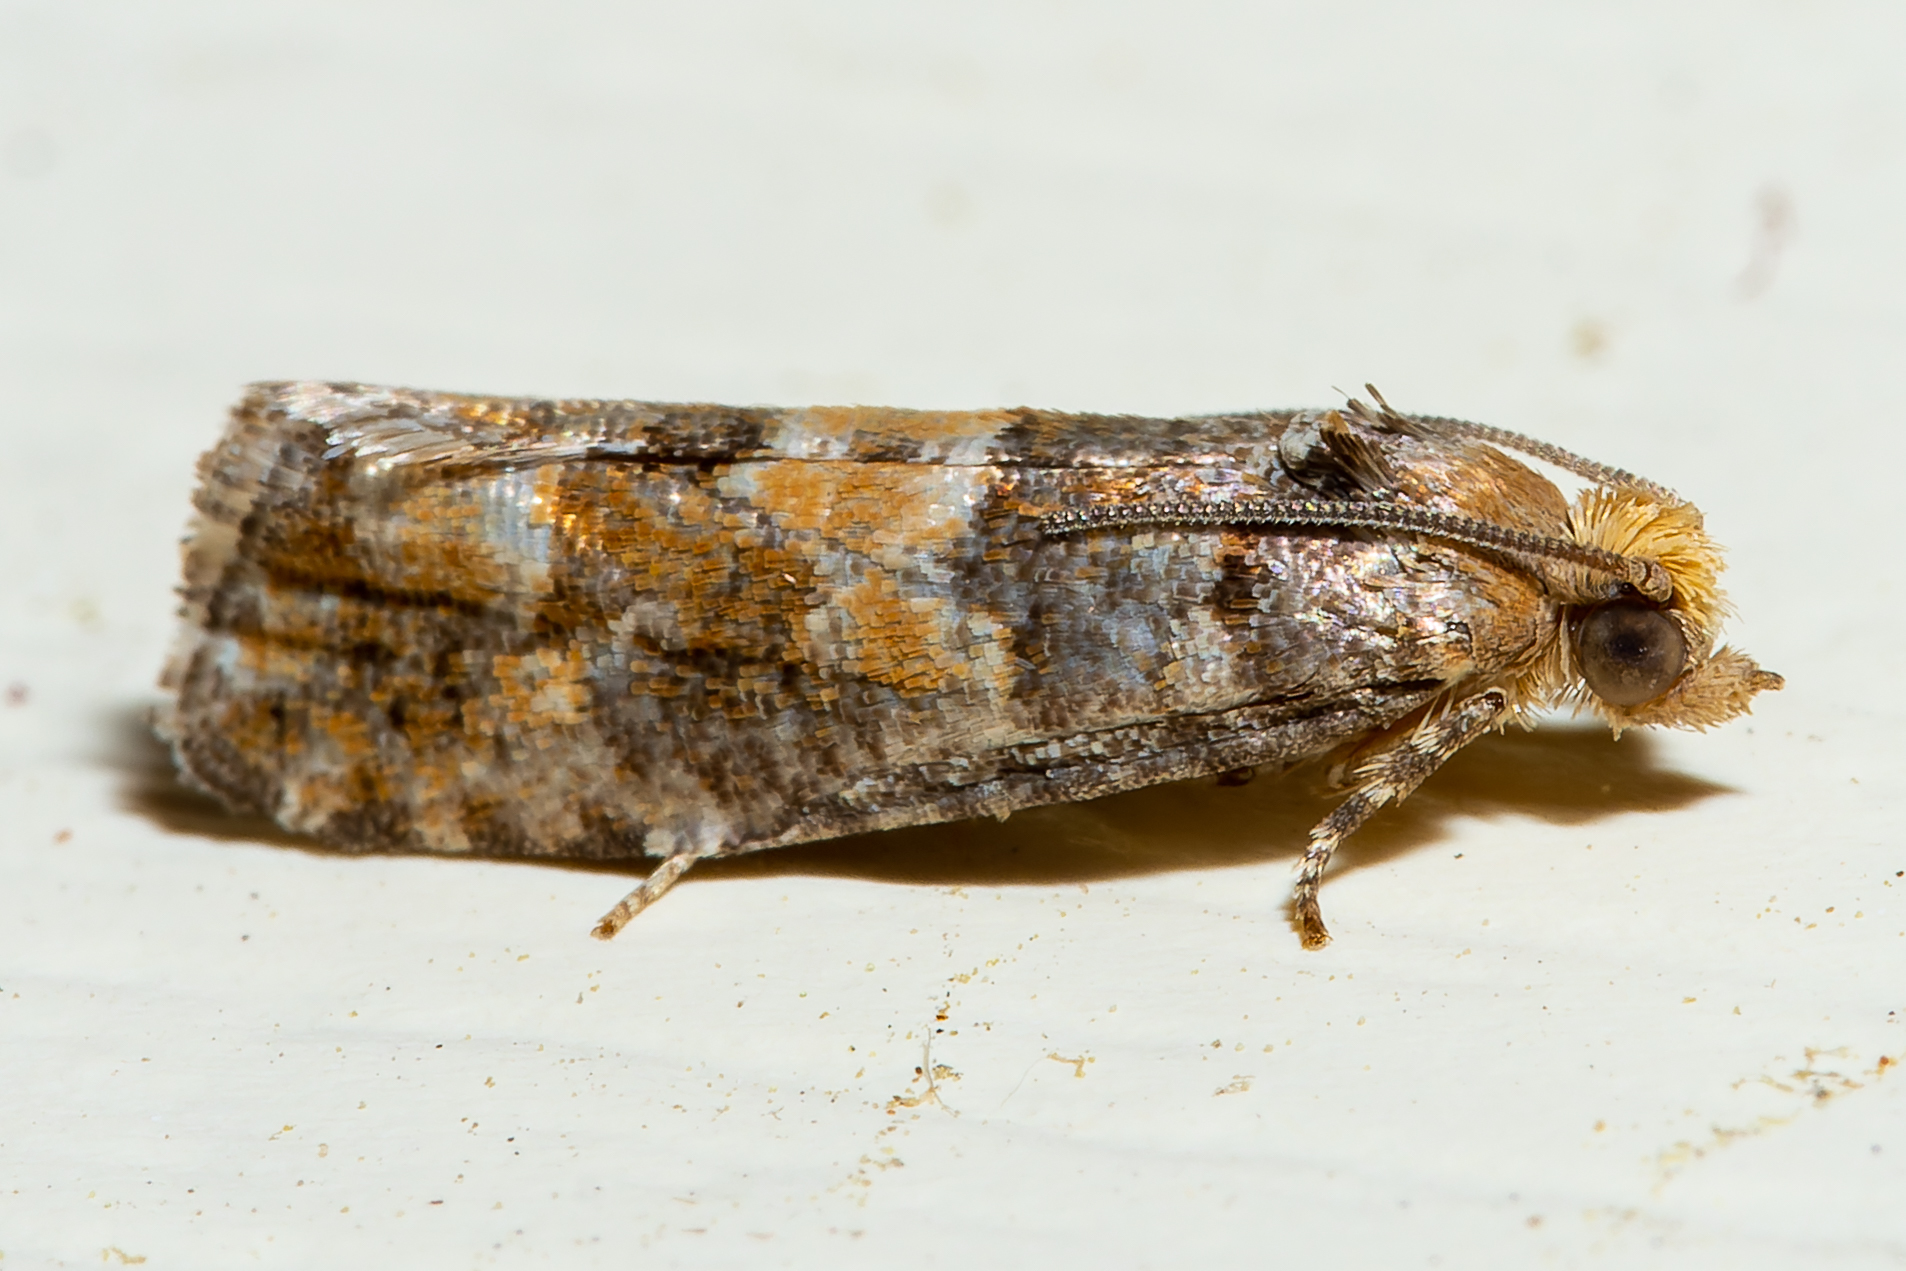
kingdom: Animalia
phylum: Arthropoda
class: Insecta
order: Lepidoptera
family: Tortricidae
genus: Eucopina
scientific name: Eucopina tocullionana
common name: White pinecone borer moth
